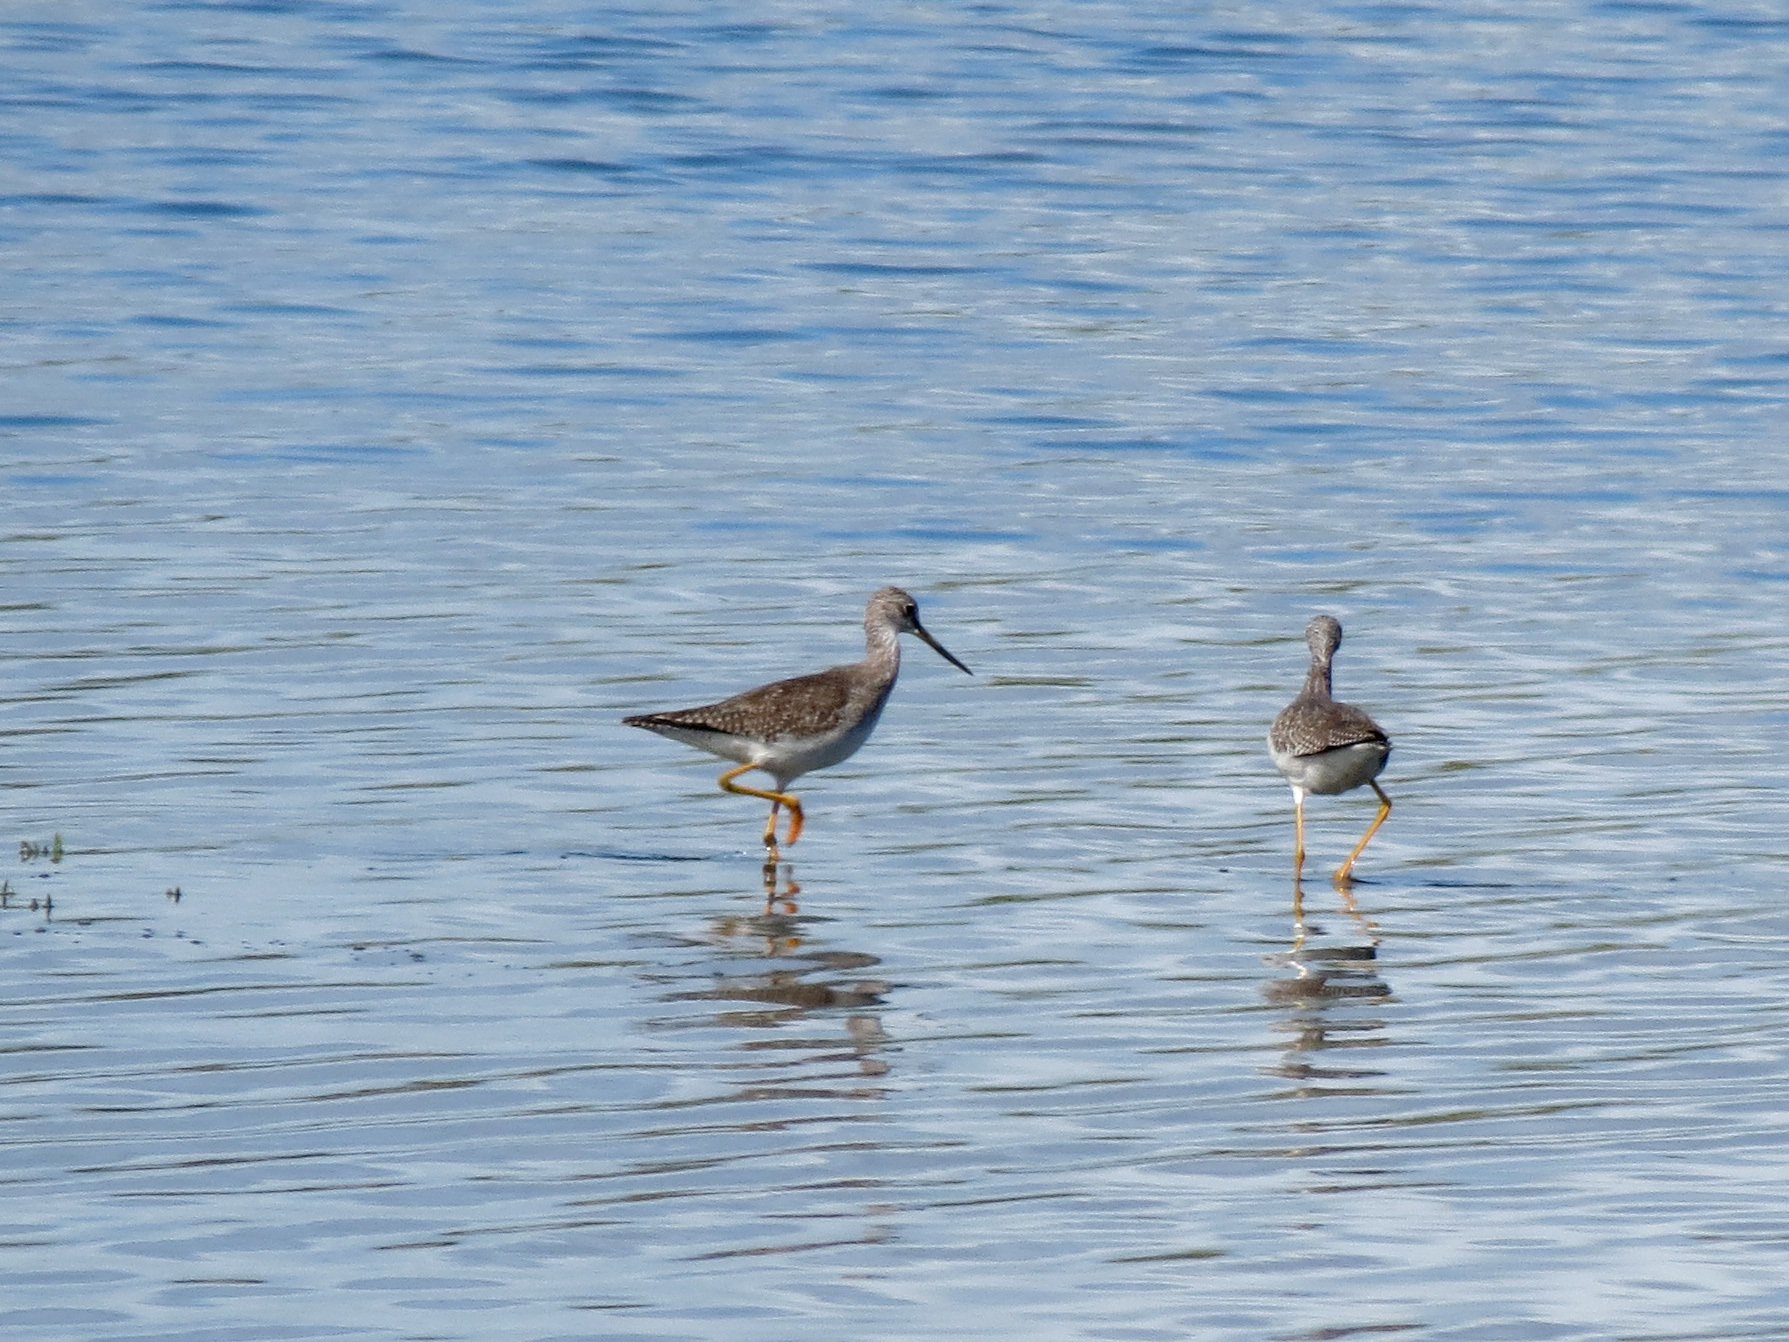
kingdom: Animalia
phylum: Chordata
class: Aves
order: Charadriiformes
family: Scolopacidae
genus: Tringa
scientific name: Tringa melanoleuca
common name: Greater yellowlegs
